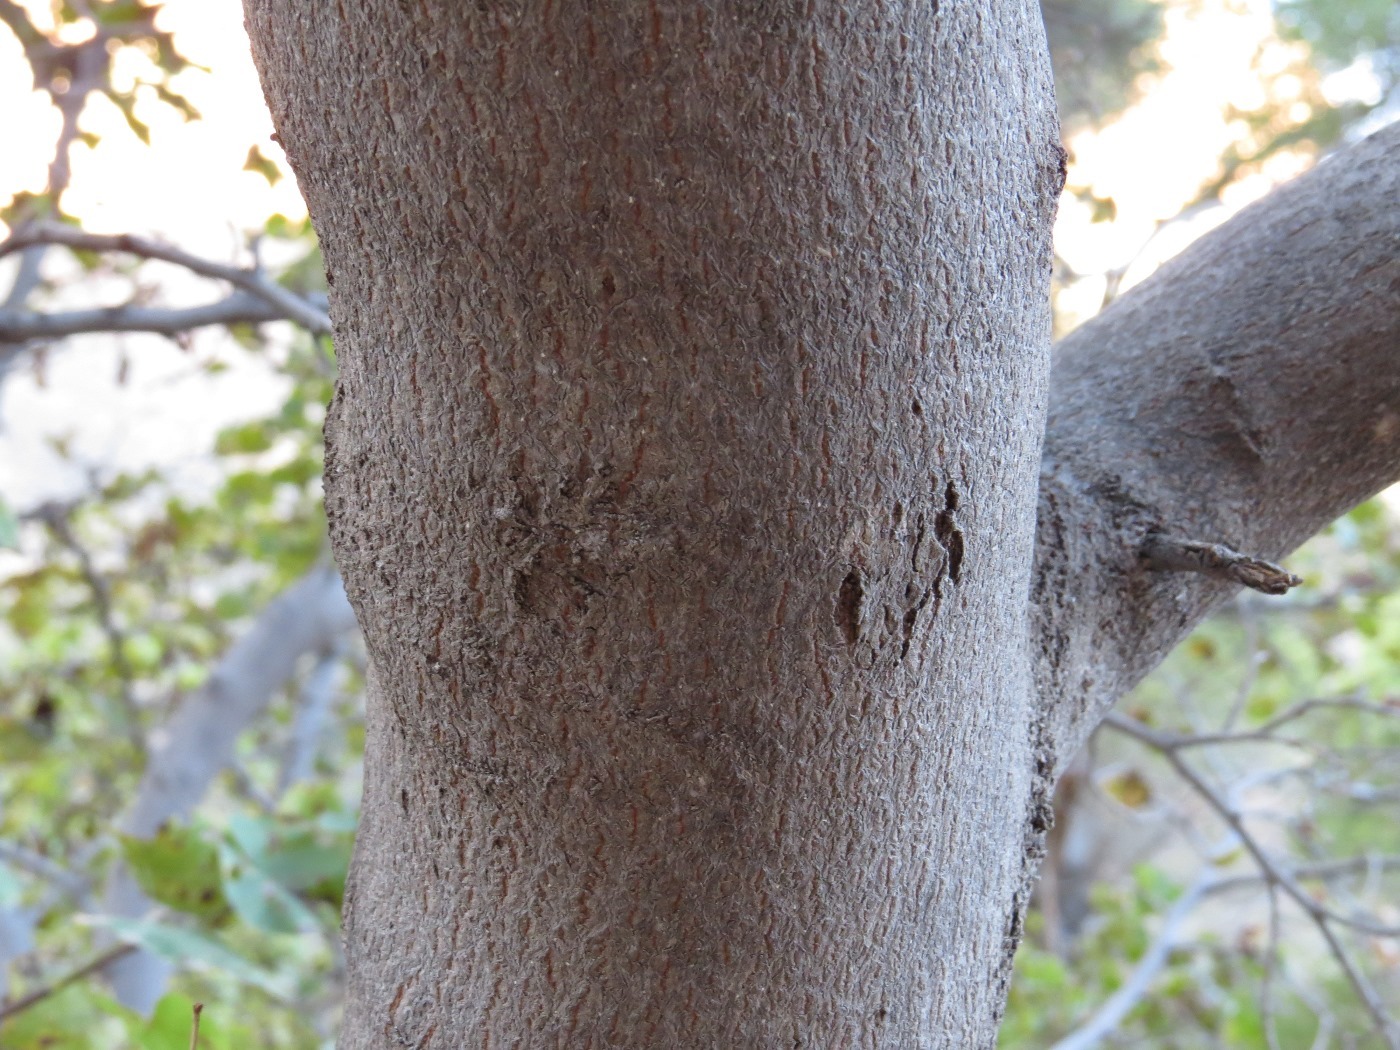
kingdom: Plantae
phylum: Tracheophyta
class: Magnoliopsida
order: Fabales
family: Fabaceae
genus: Cercis
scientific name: Cercis orbiculata
